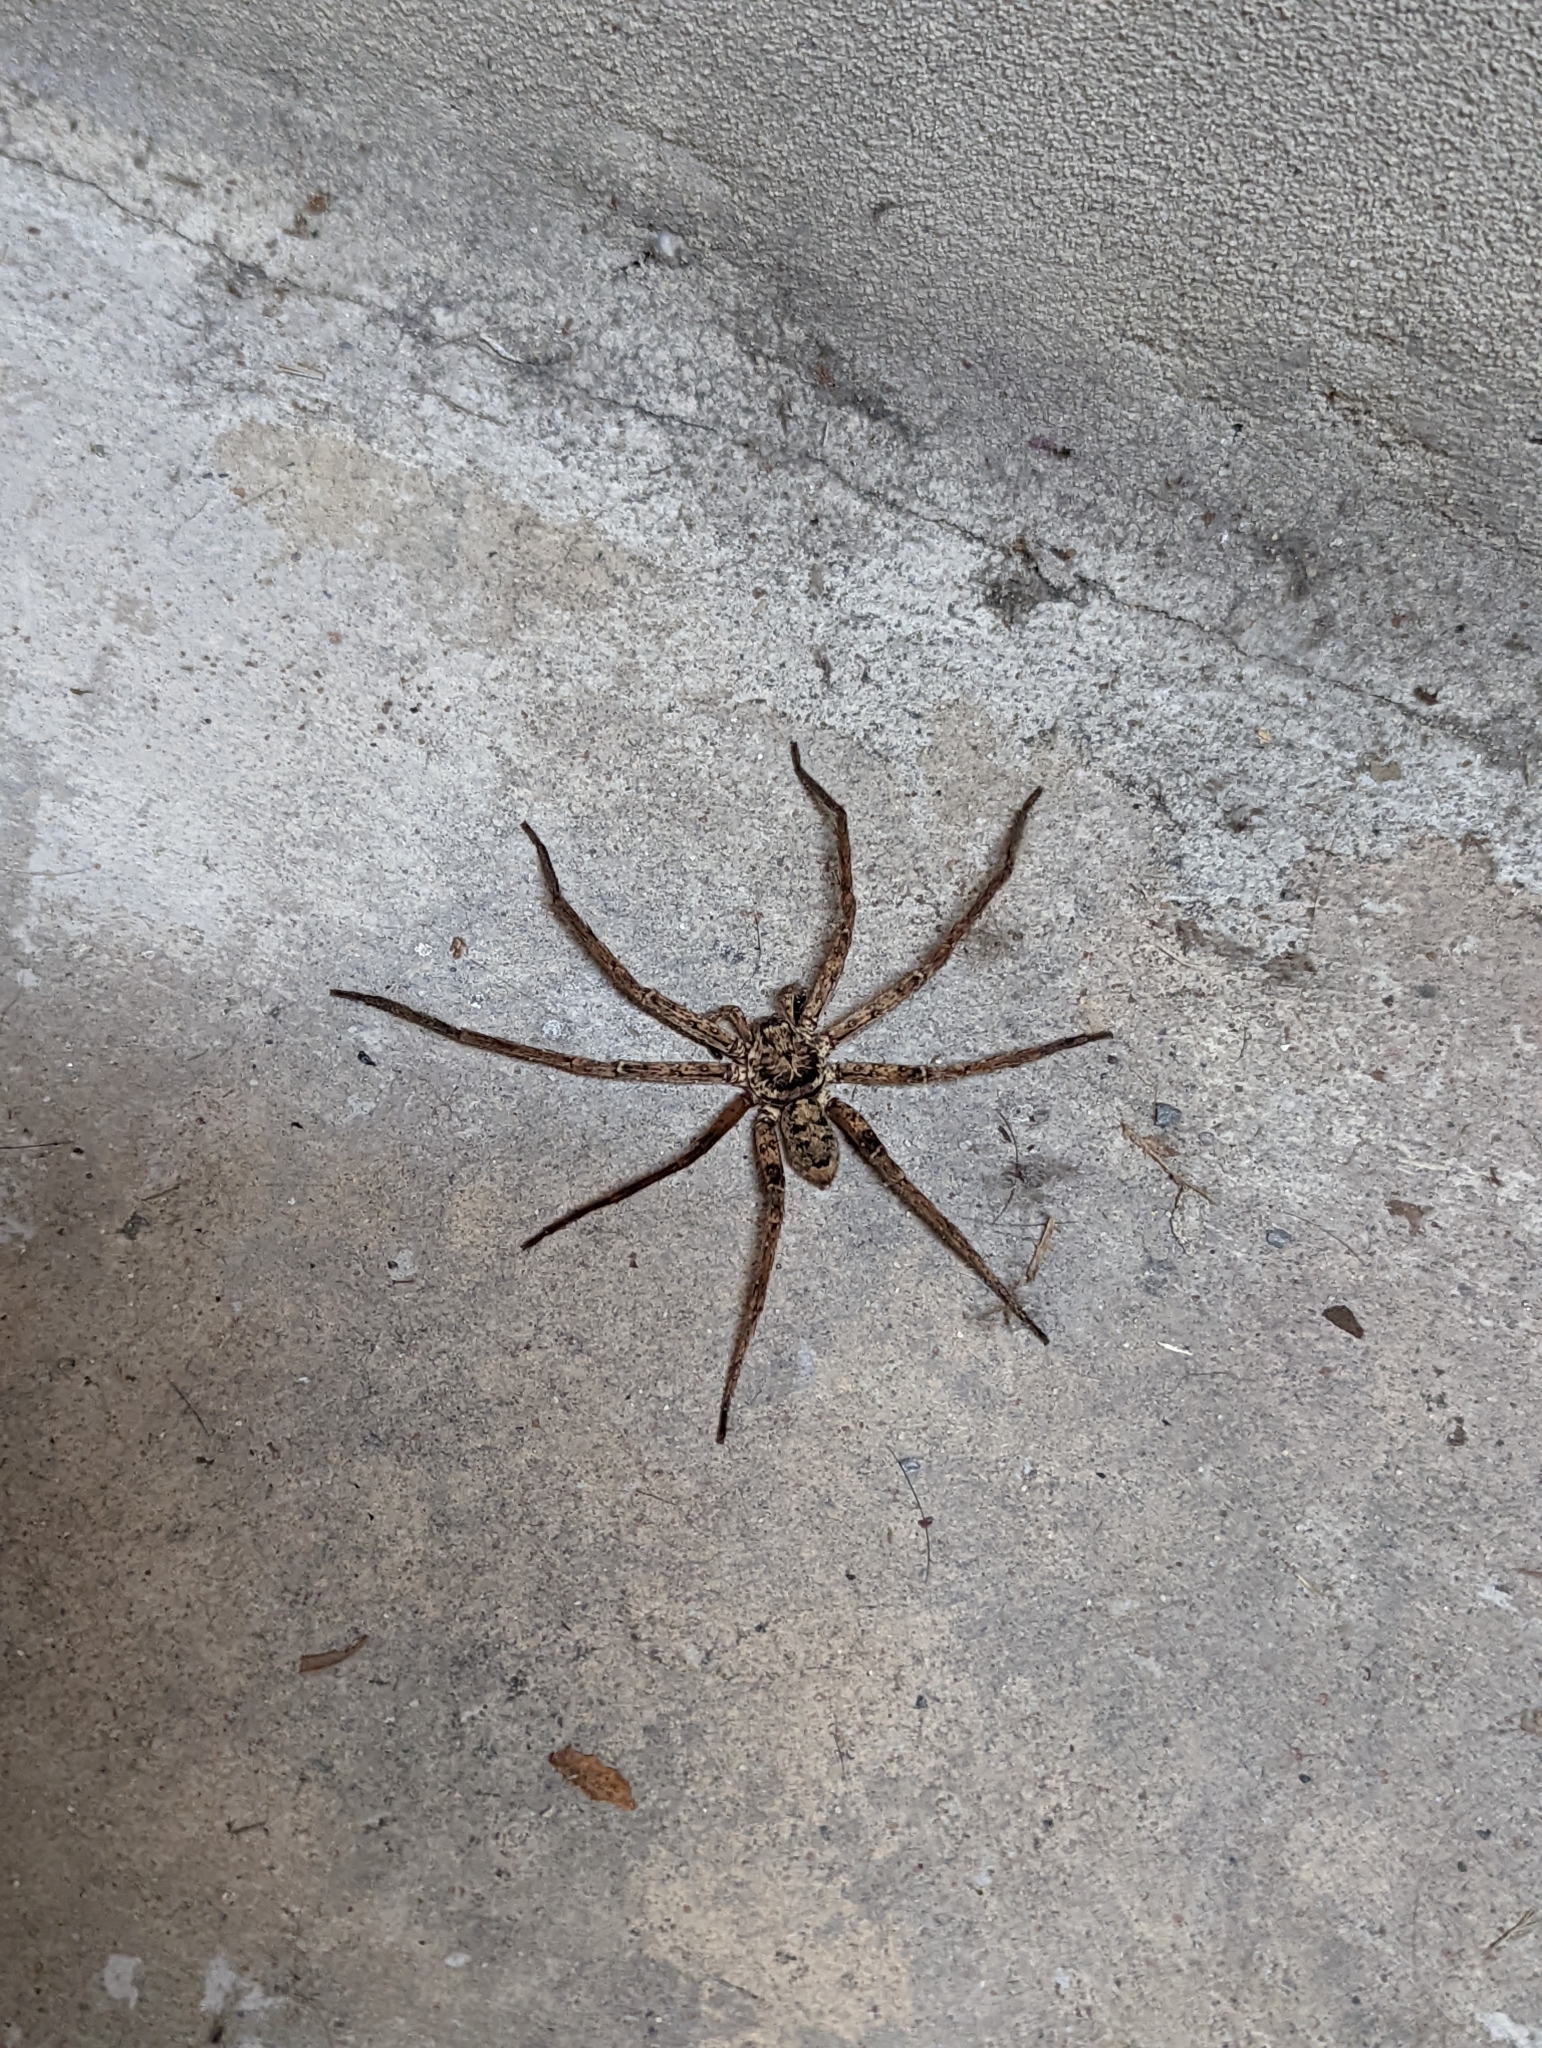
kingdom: Animalia
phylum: Arthropoda
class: Arachnida
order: Araneae
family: Sparassidae
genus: Heteropoda
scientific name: Heteropoda jugulans
